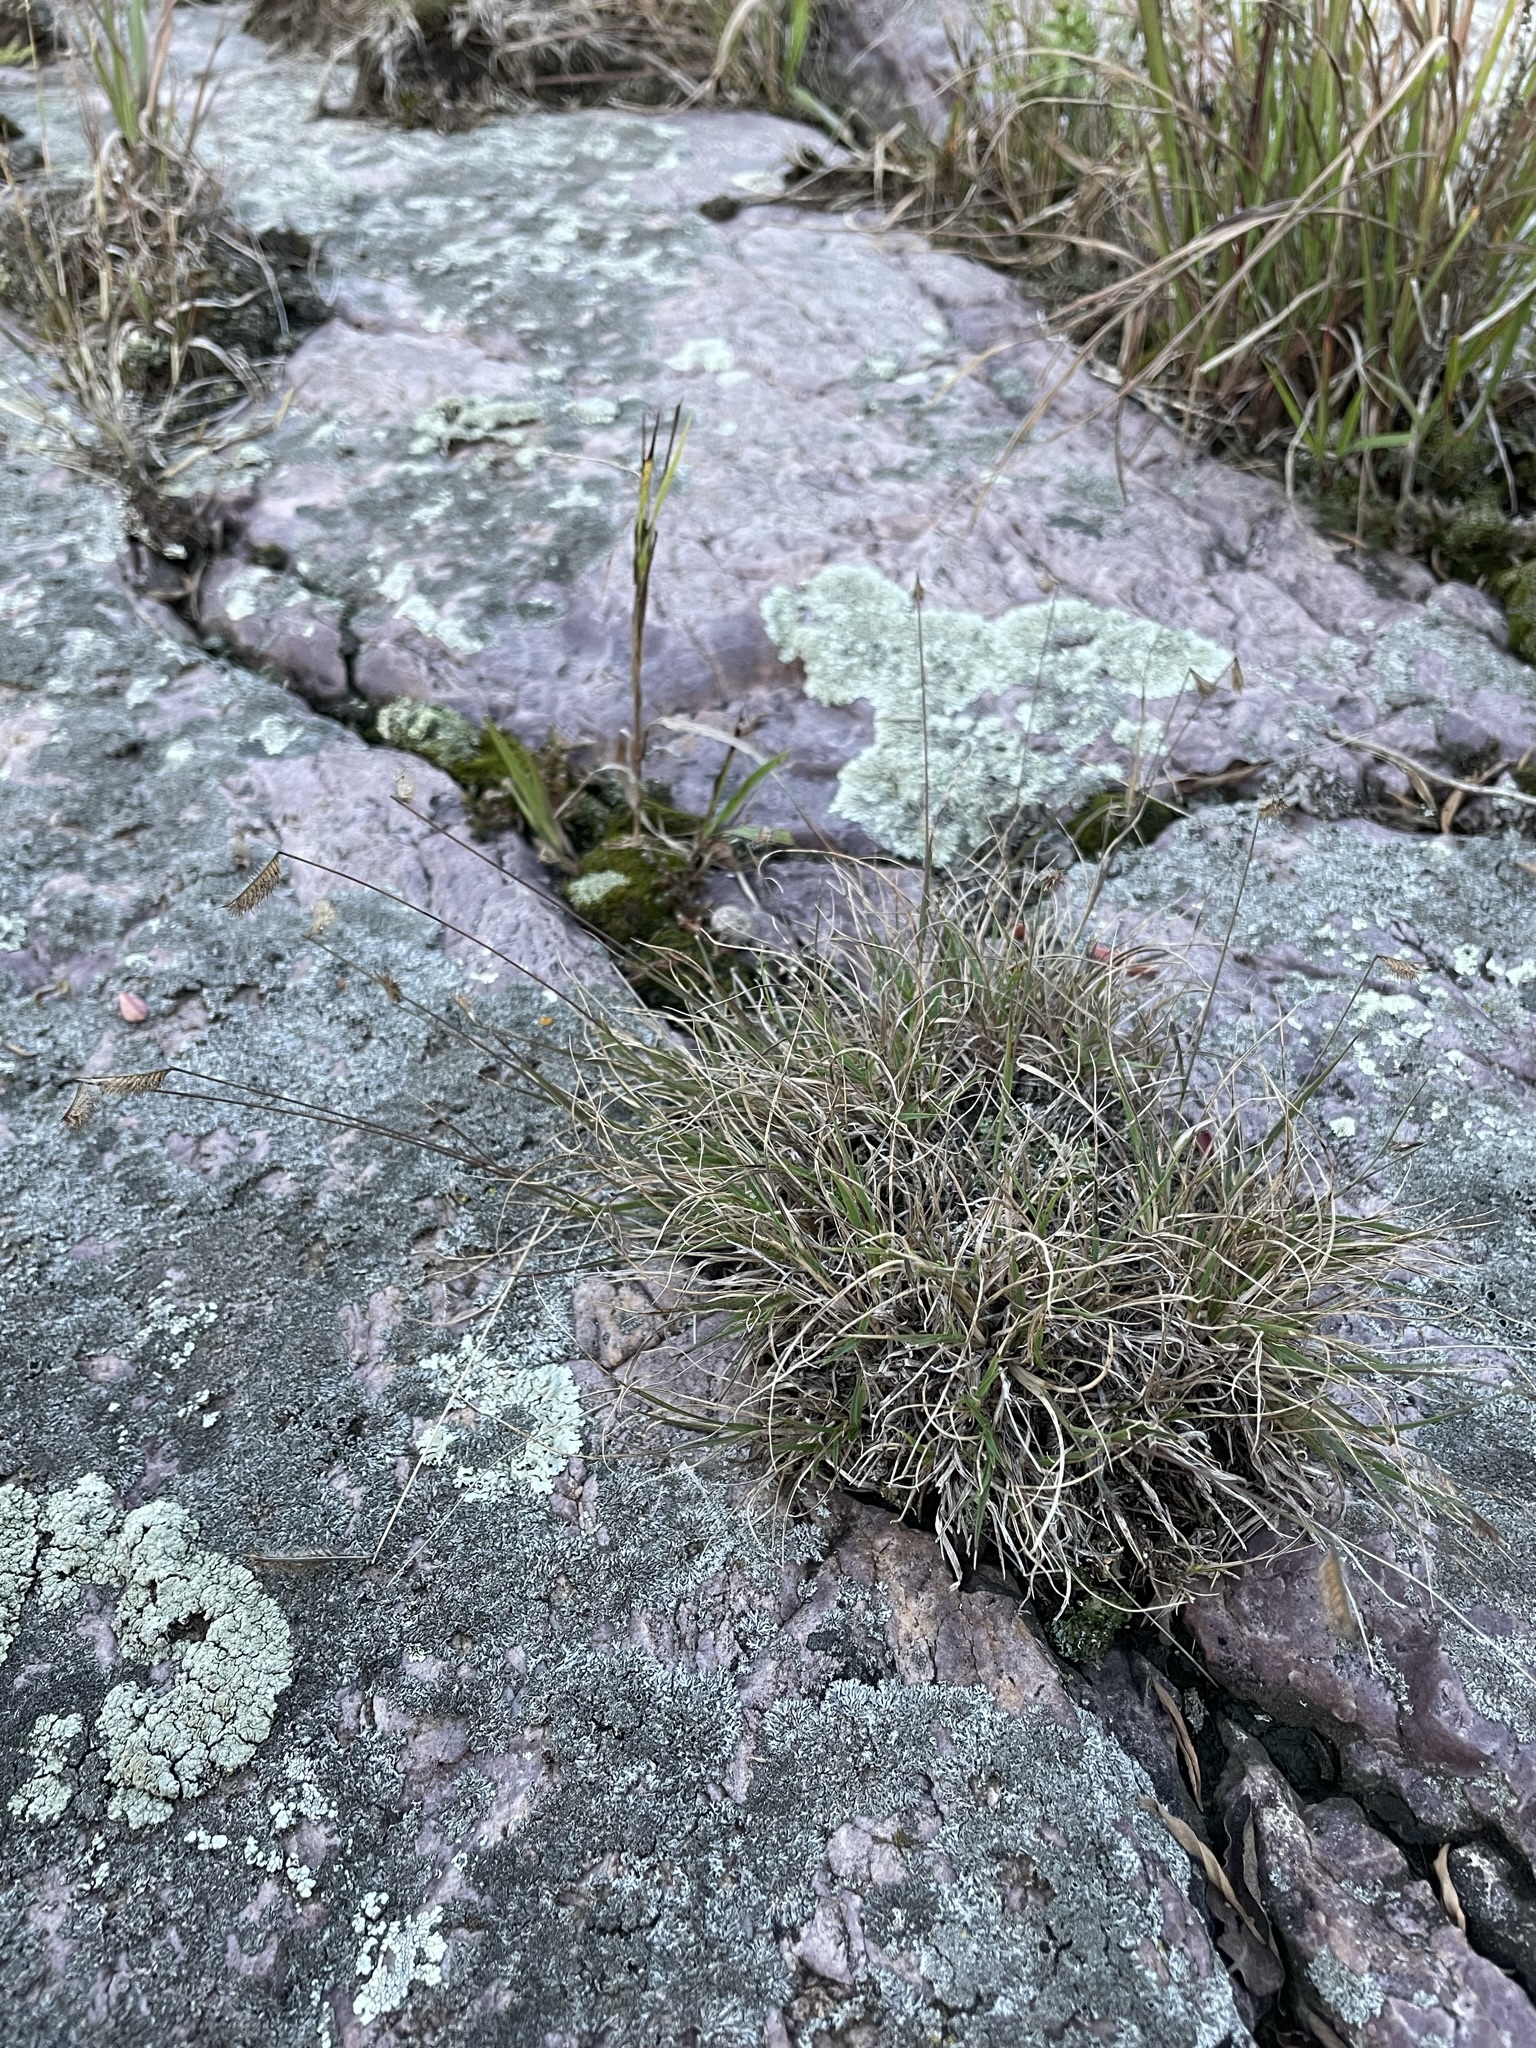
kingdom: Plantae
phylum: Tracheophyta
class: Liliopsida
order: Poales
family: Poaceae
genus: Bouteloua
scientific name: Bouteloua hirsuta
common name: Hairy grama
